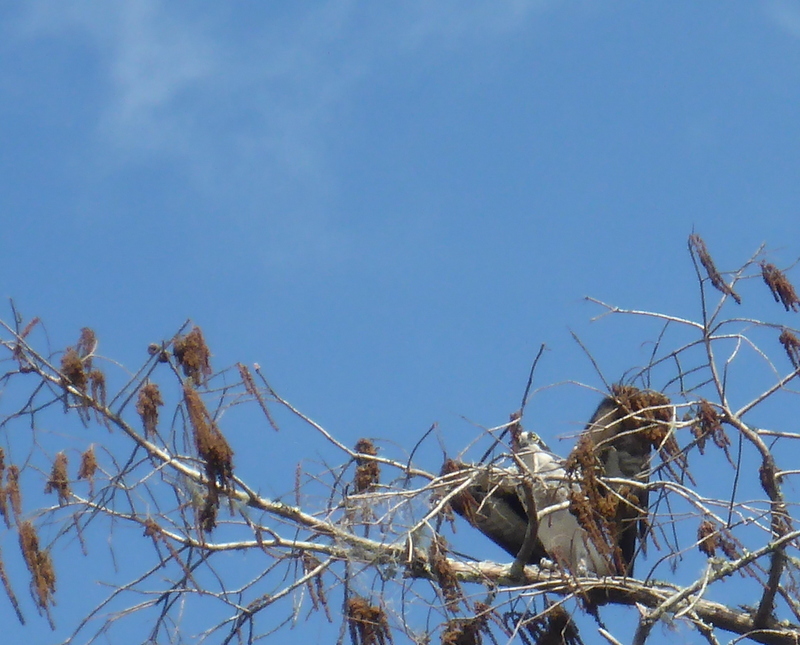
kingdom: Animalia
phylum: Chordata
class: Aves
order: Accipitriformes
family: Pandionidae
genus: Pandion
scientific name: Pandion haliaetus
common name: Osprey
